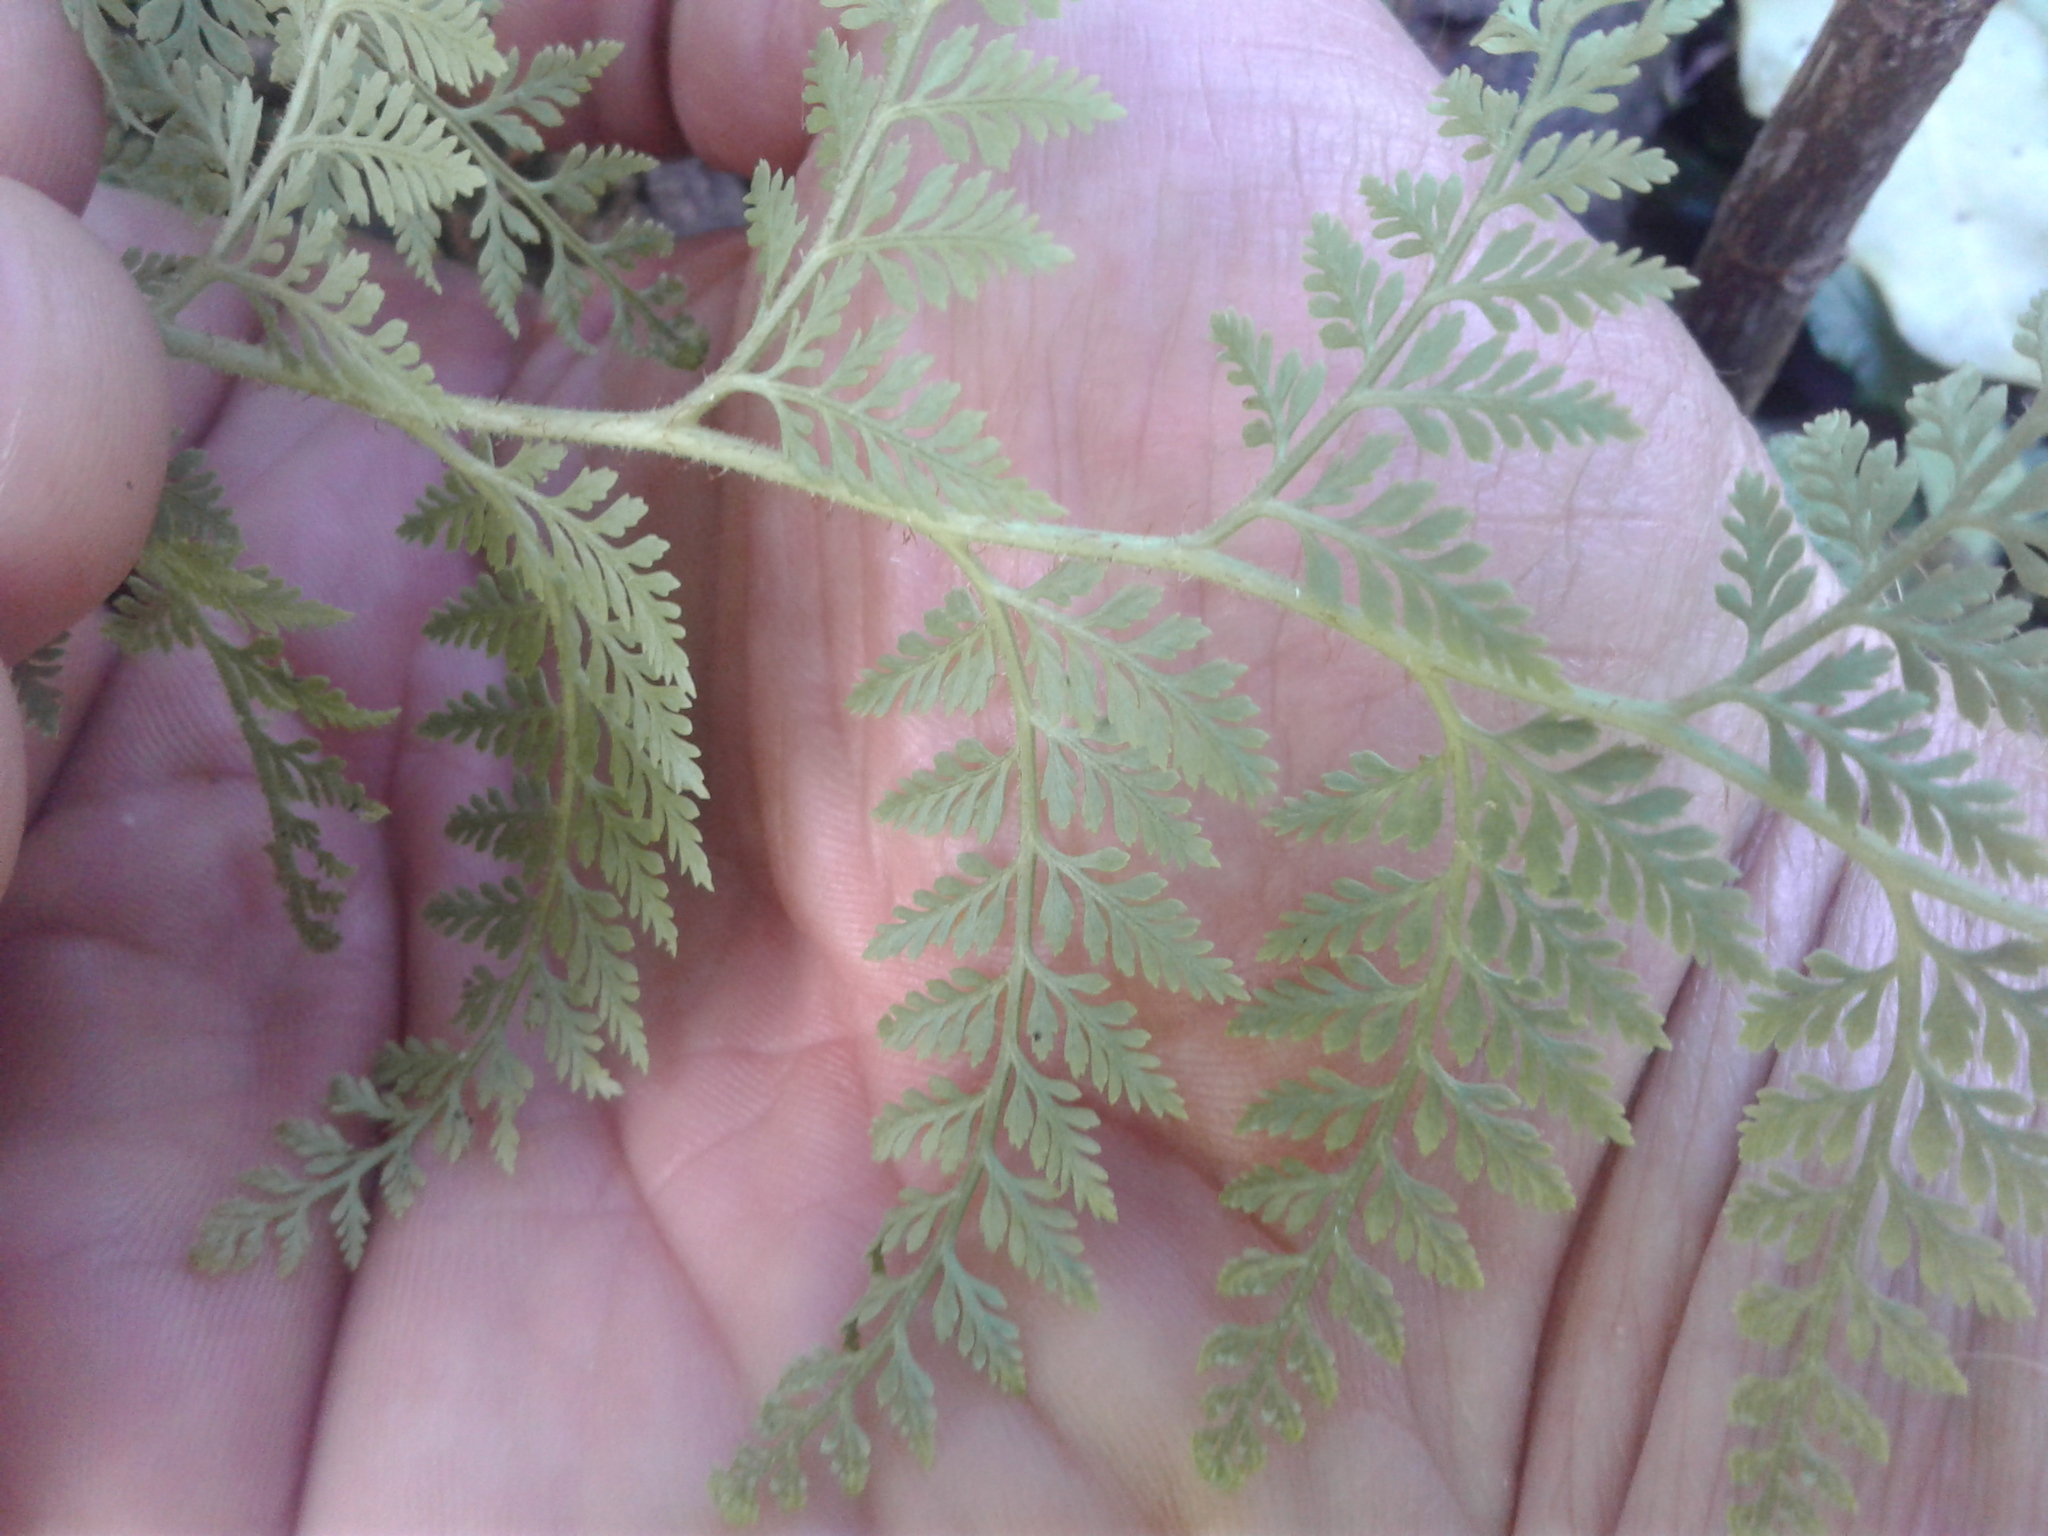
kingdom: Plantae
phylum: Tracheophyta
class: Polypodiopsida
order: Polypodiales
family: Dennstaedtiaceae
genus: Paesia
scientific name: Paesia scaberula
